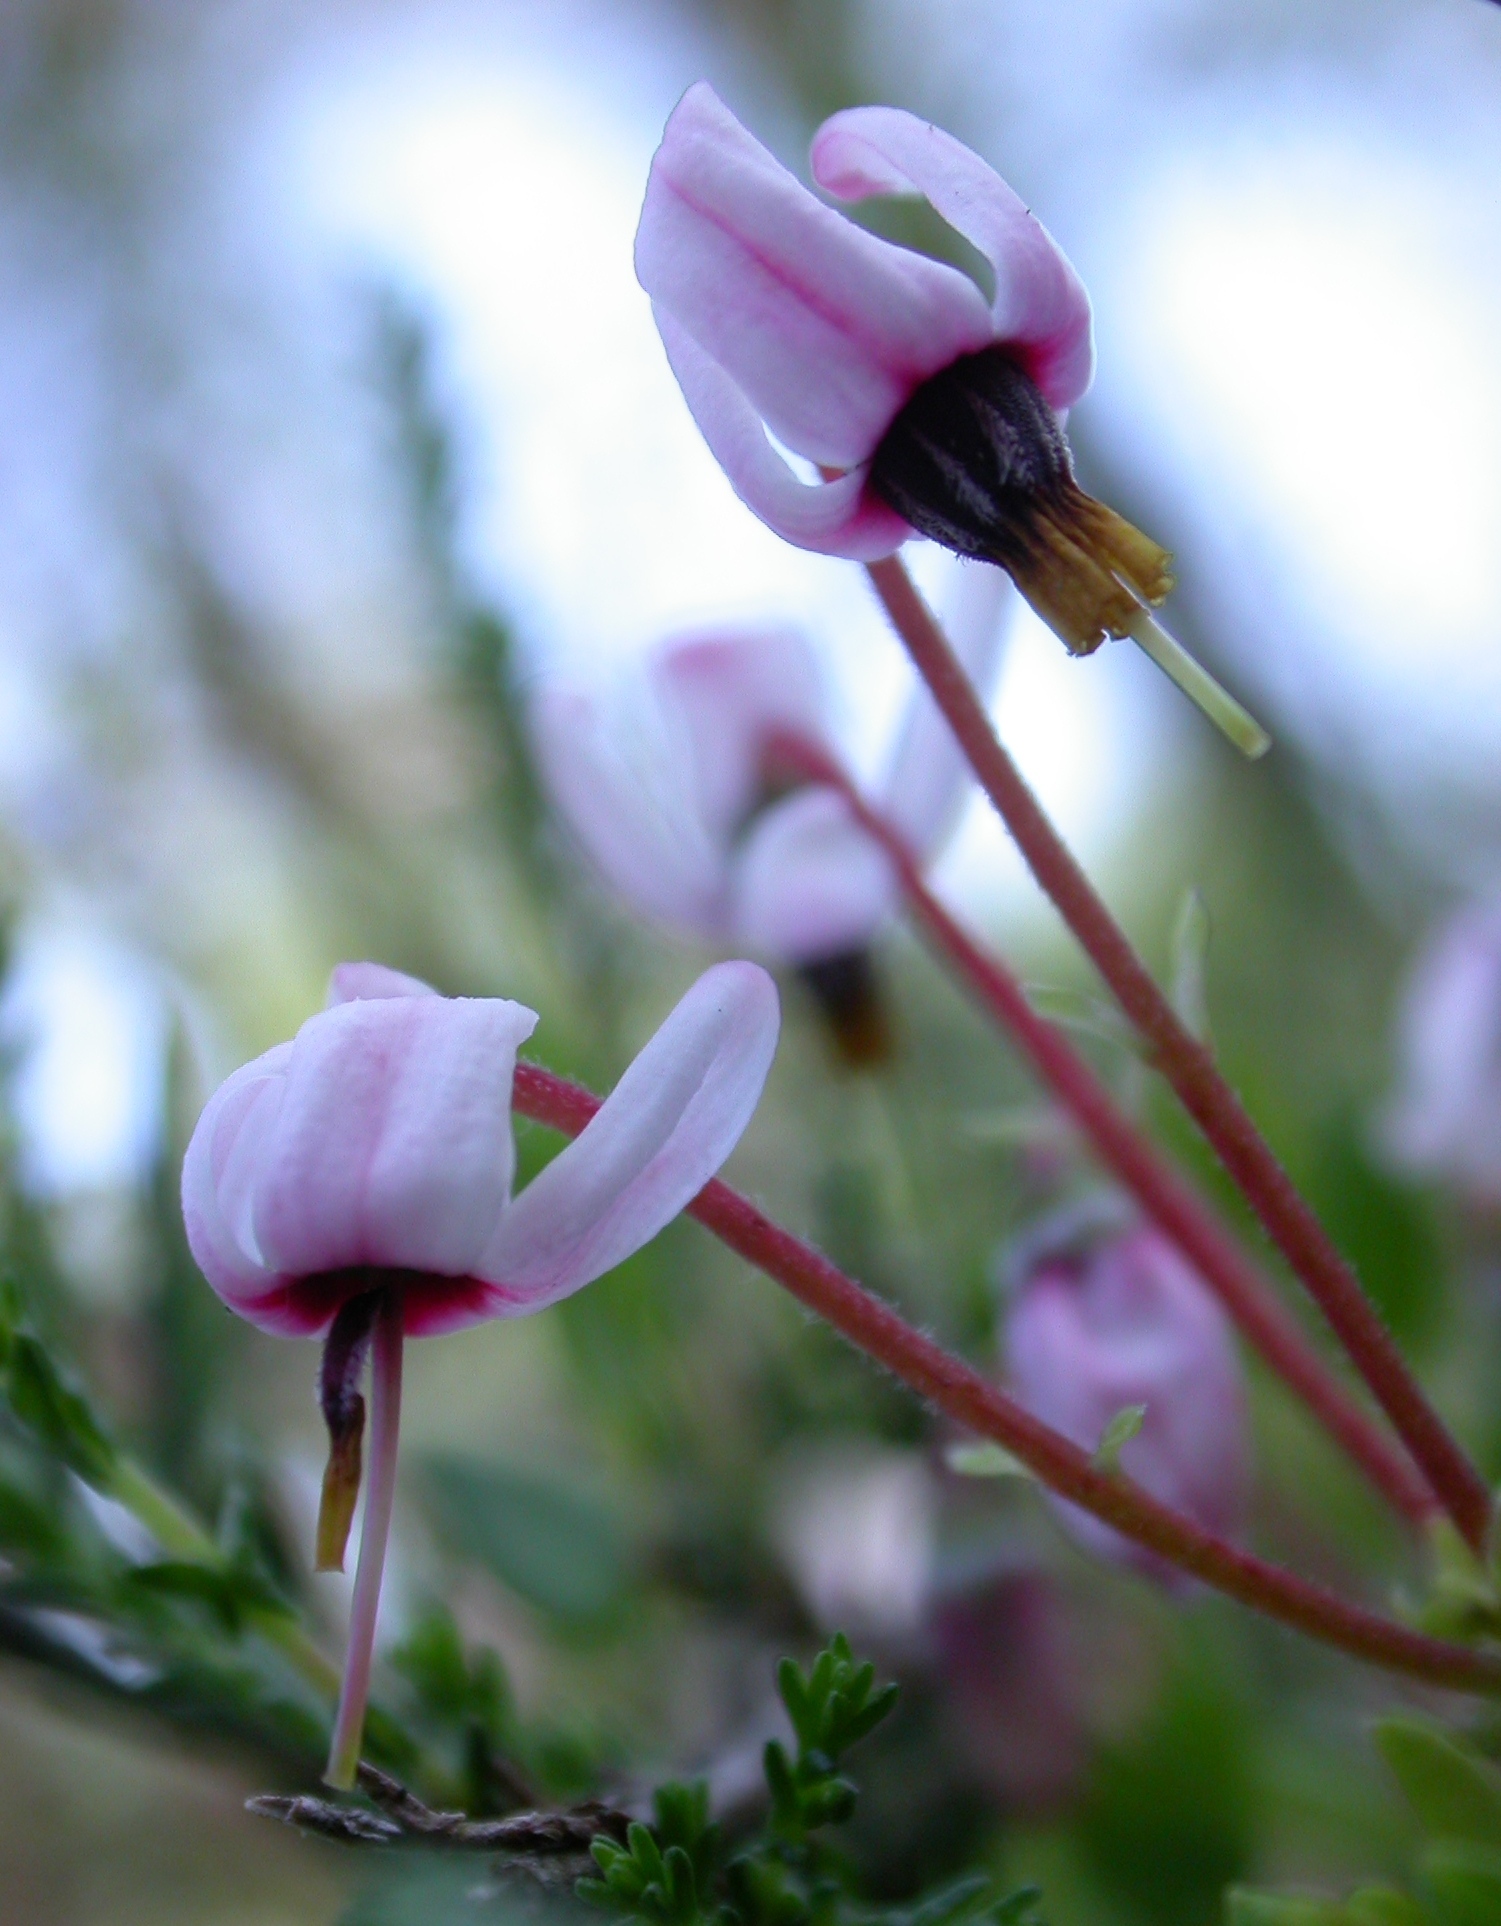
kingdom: Plantae
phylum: Tracheophyta
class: Magnoliopsida
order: Ericales
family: Ericaceae
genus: Vaccinium
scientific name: Vaccinium oxycoccos
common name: Cranberry
